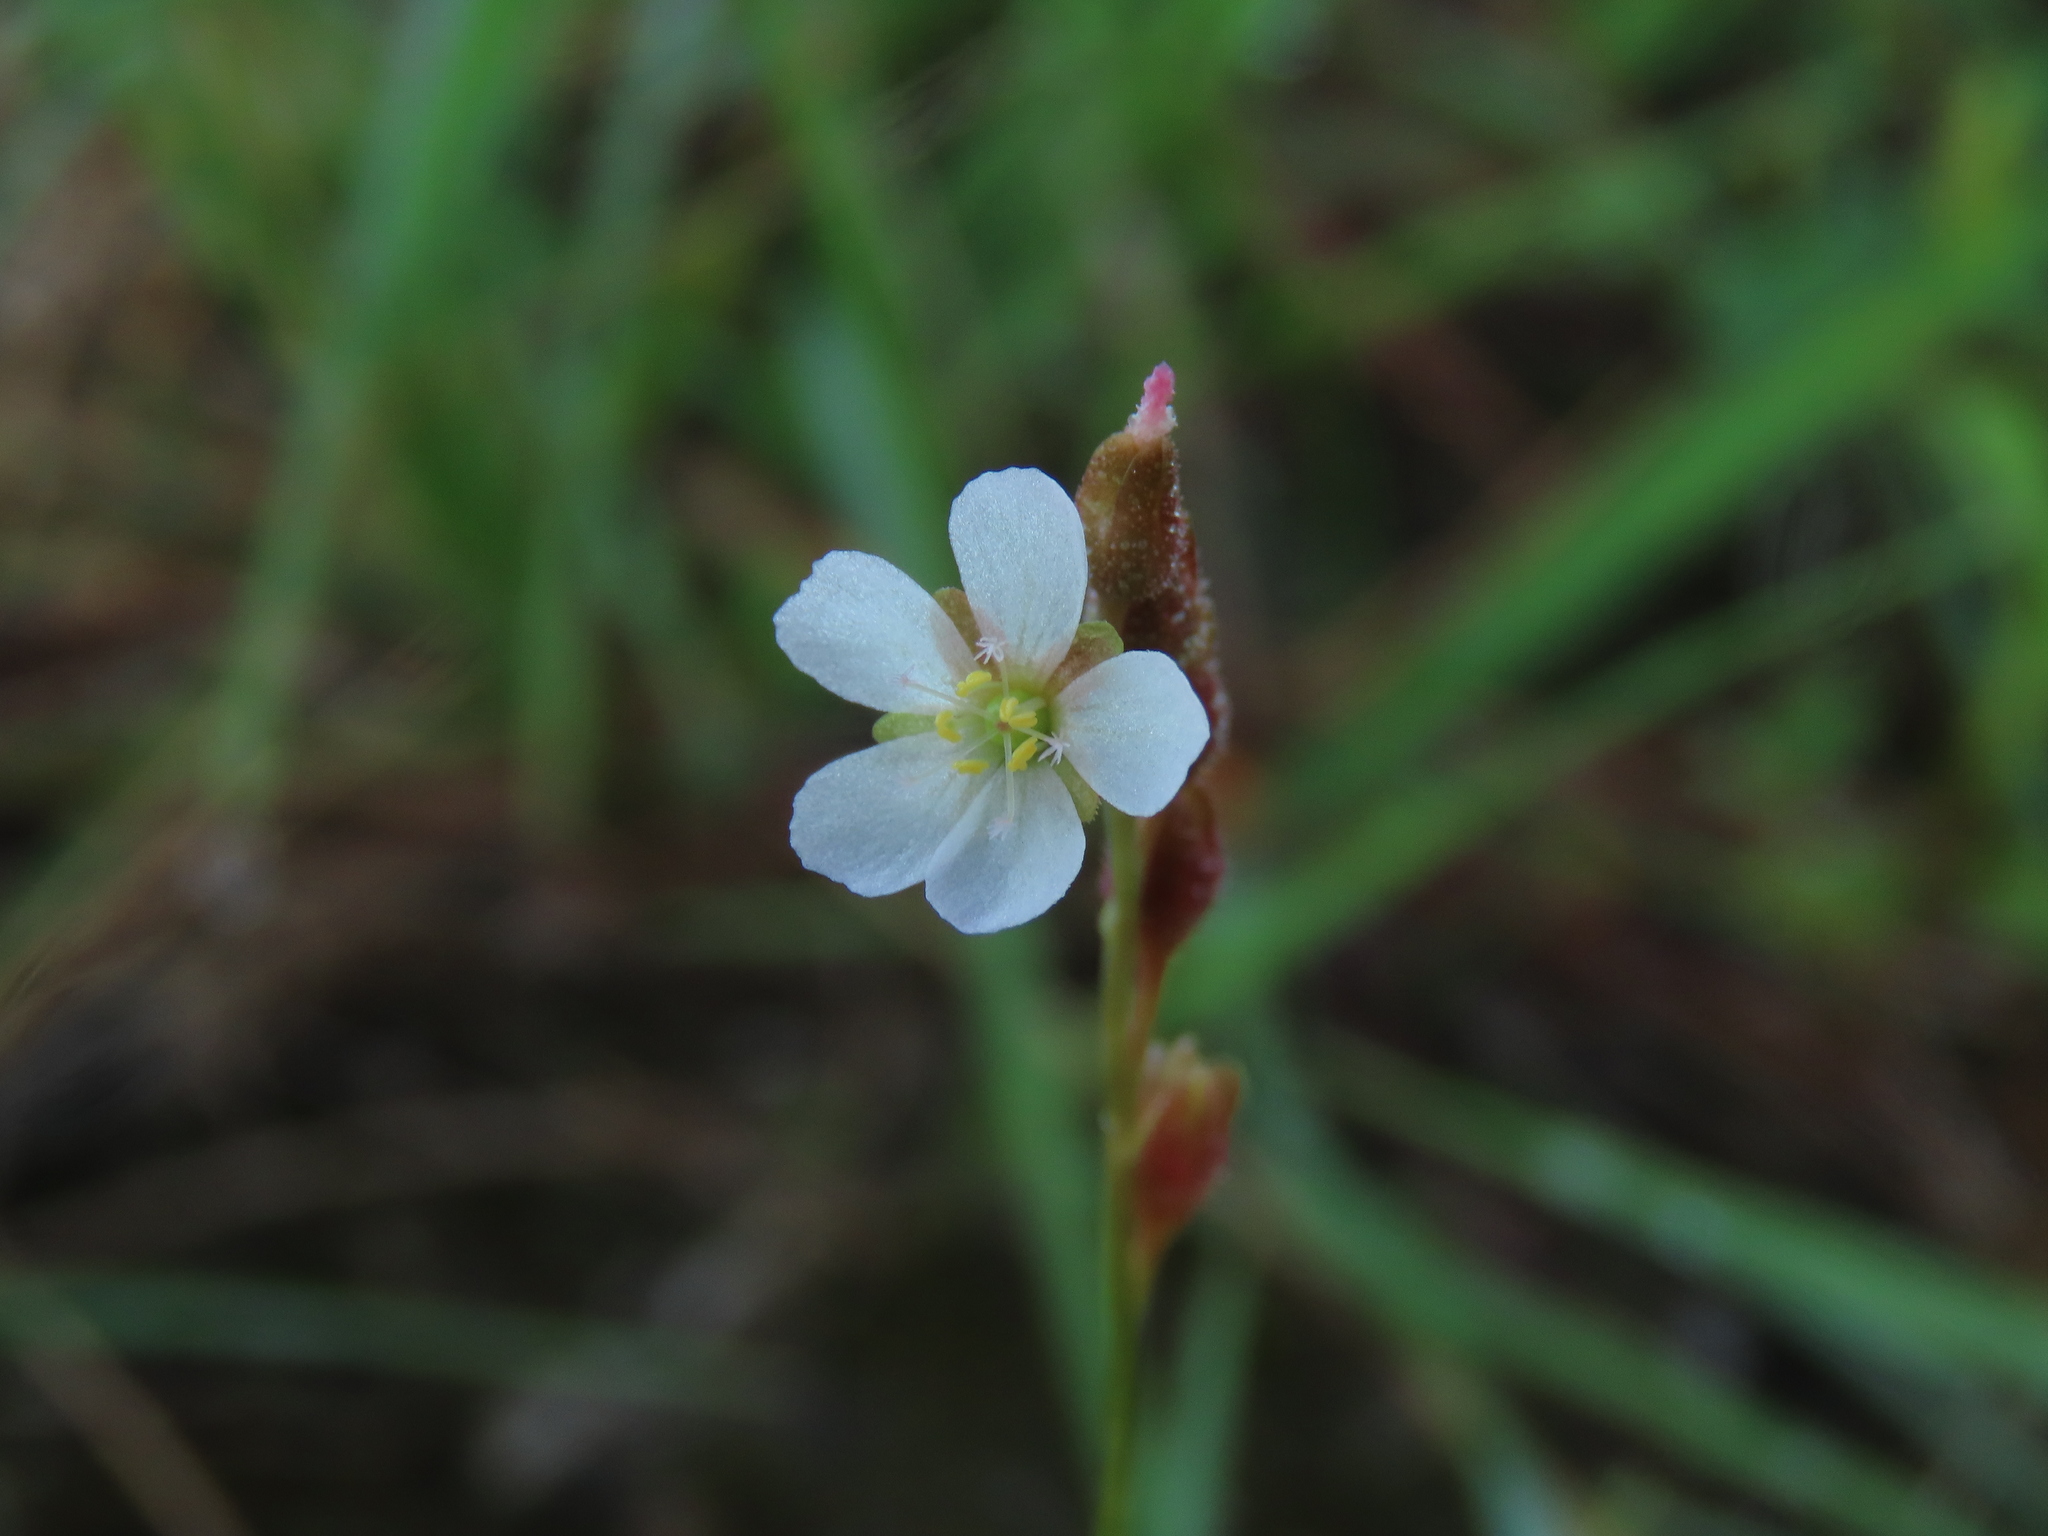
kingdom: Plantae
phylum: Tracheophyta
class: Magnoliopsida
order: Caryophyllales
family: Droseraceae
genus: Drosera
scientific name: Drosera spatulata
